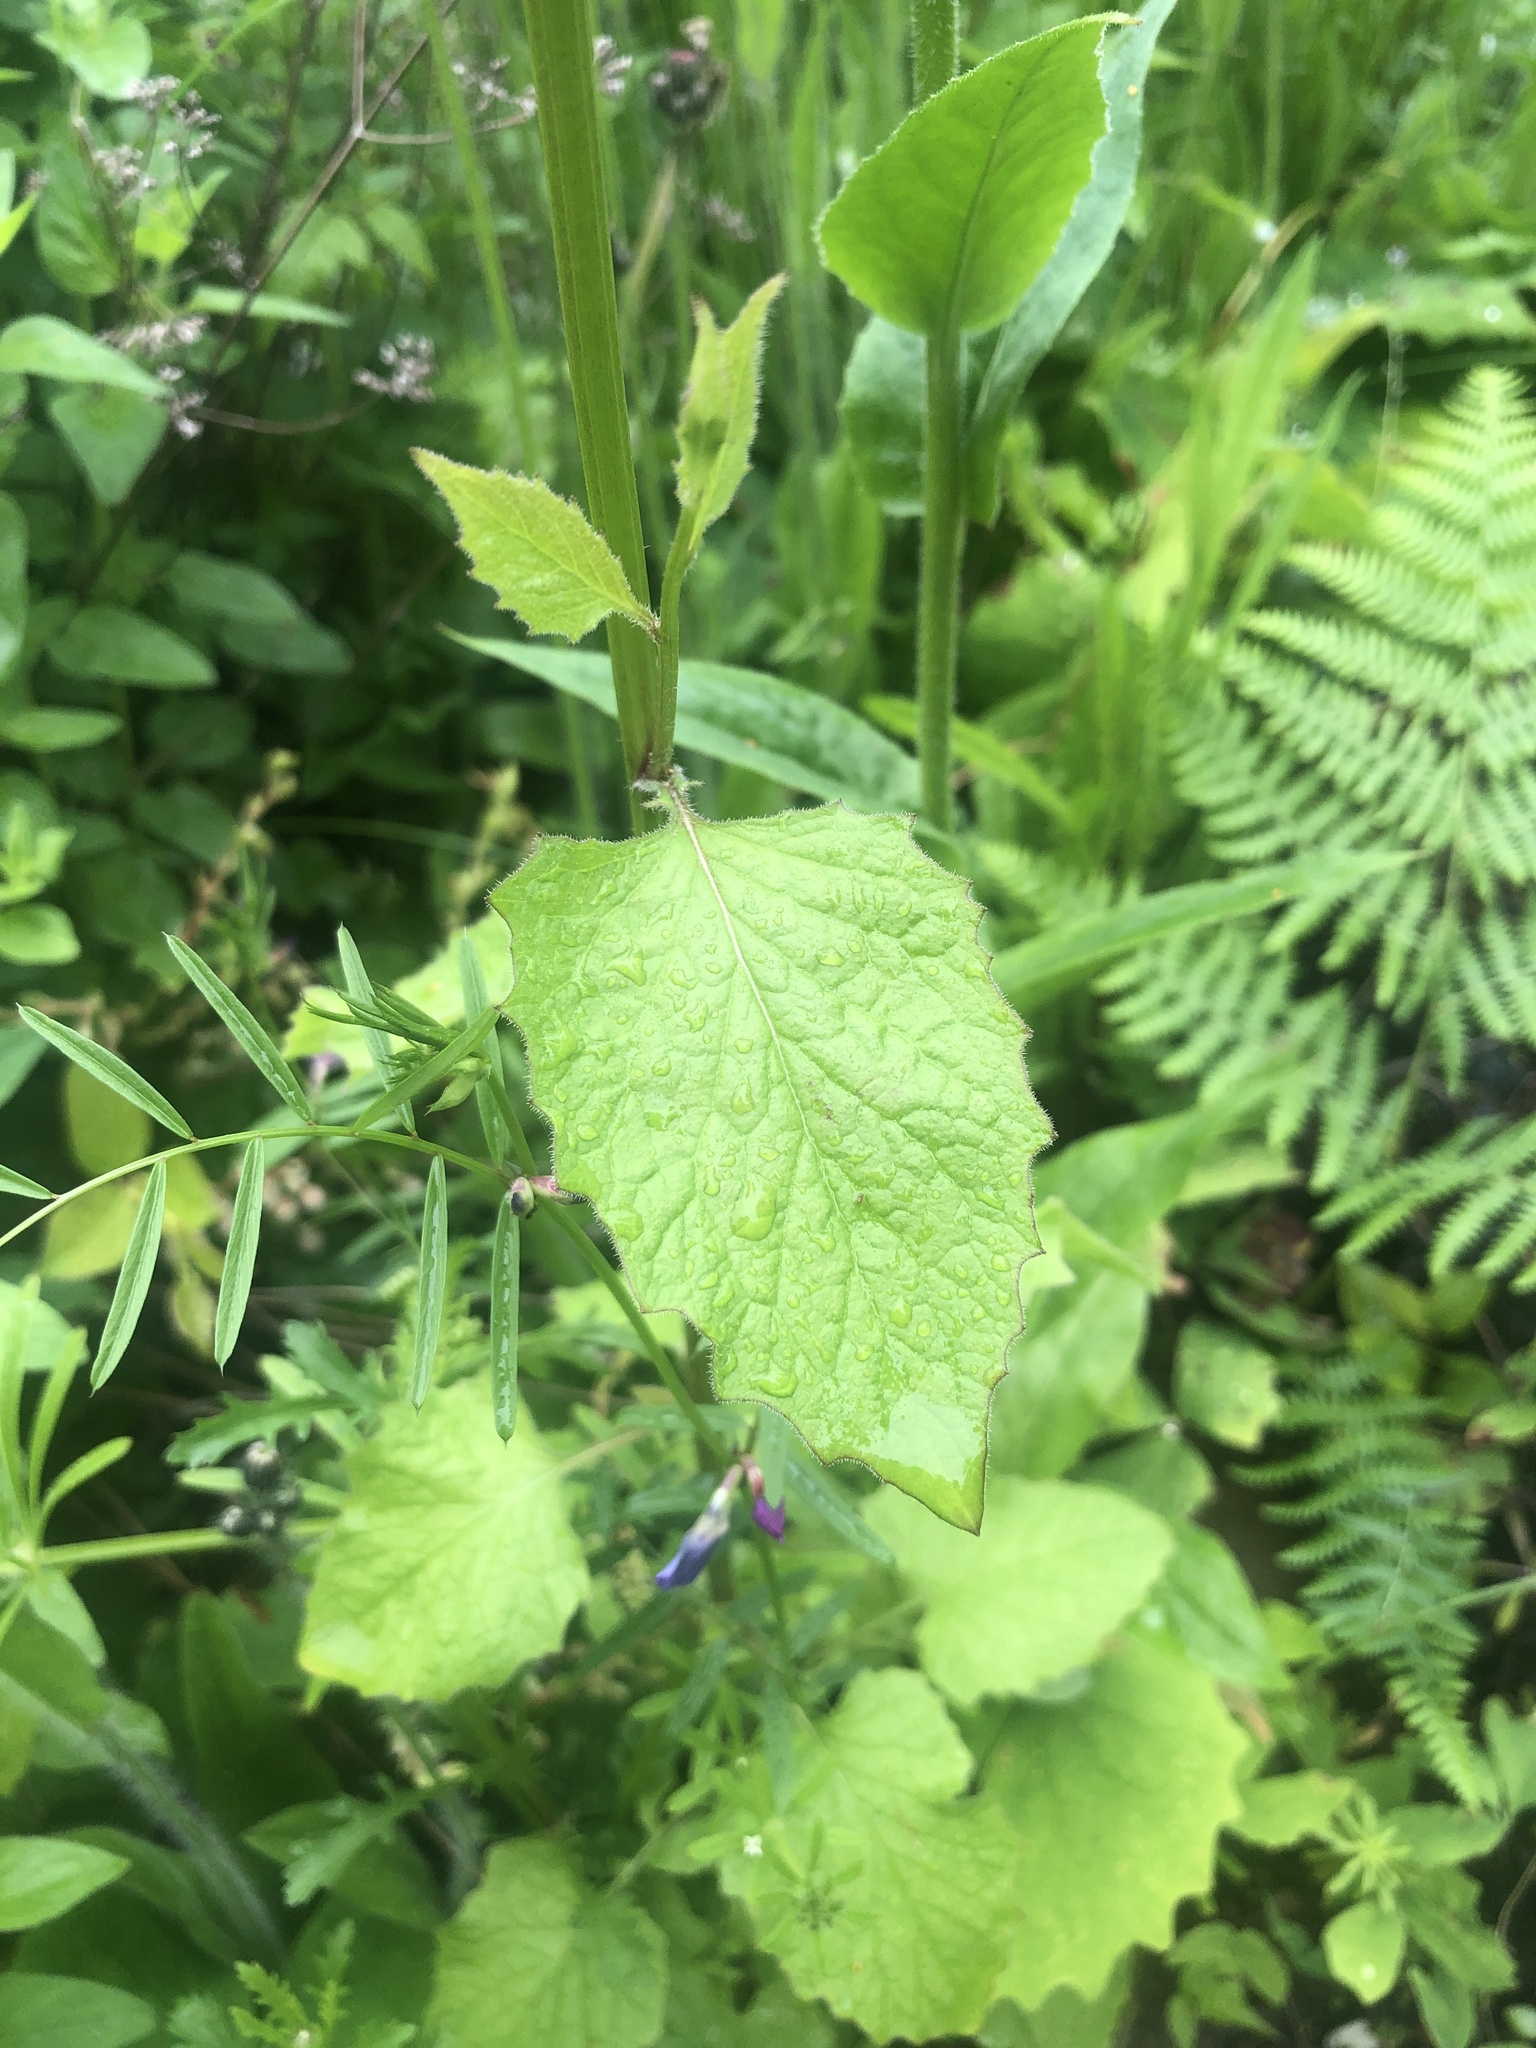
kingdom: Plantae
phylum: Tracheophyta
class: Magnoliopsida
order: Brassicales
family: Brassicaceae
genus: Hesperis
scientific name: Hesperis matronalis
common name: Dame's-violet
